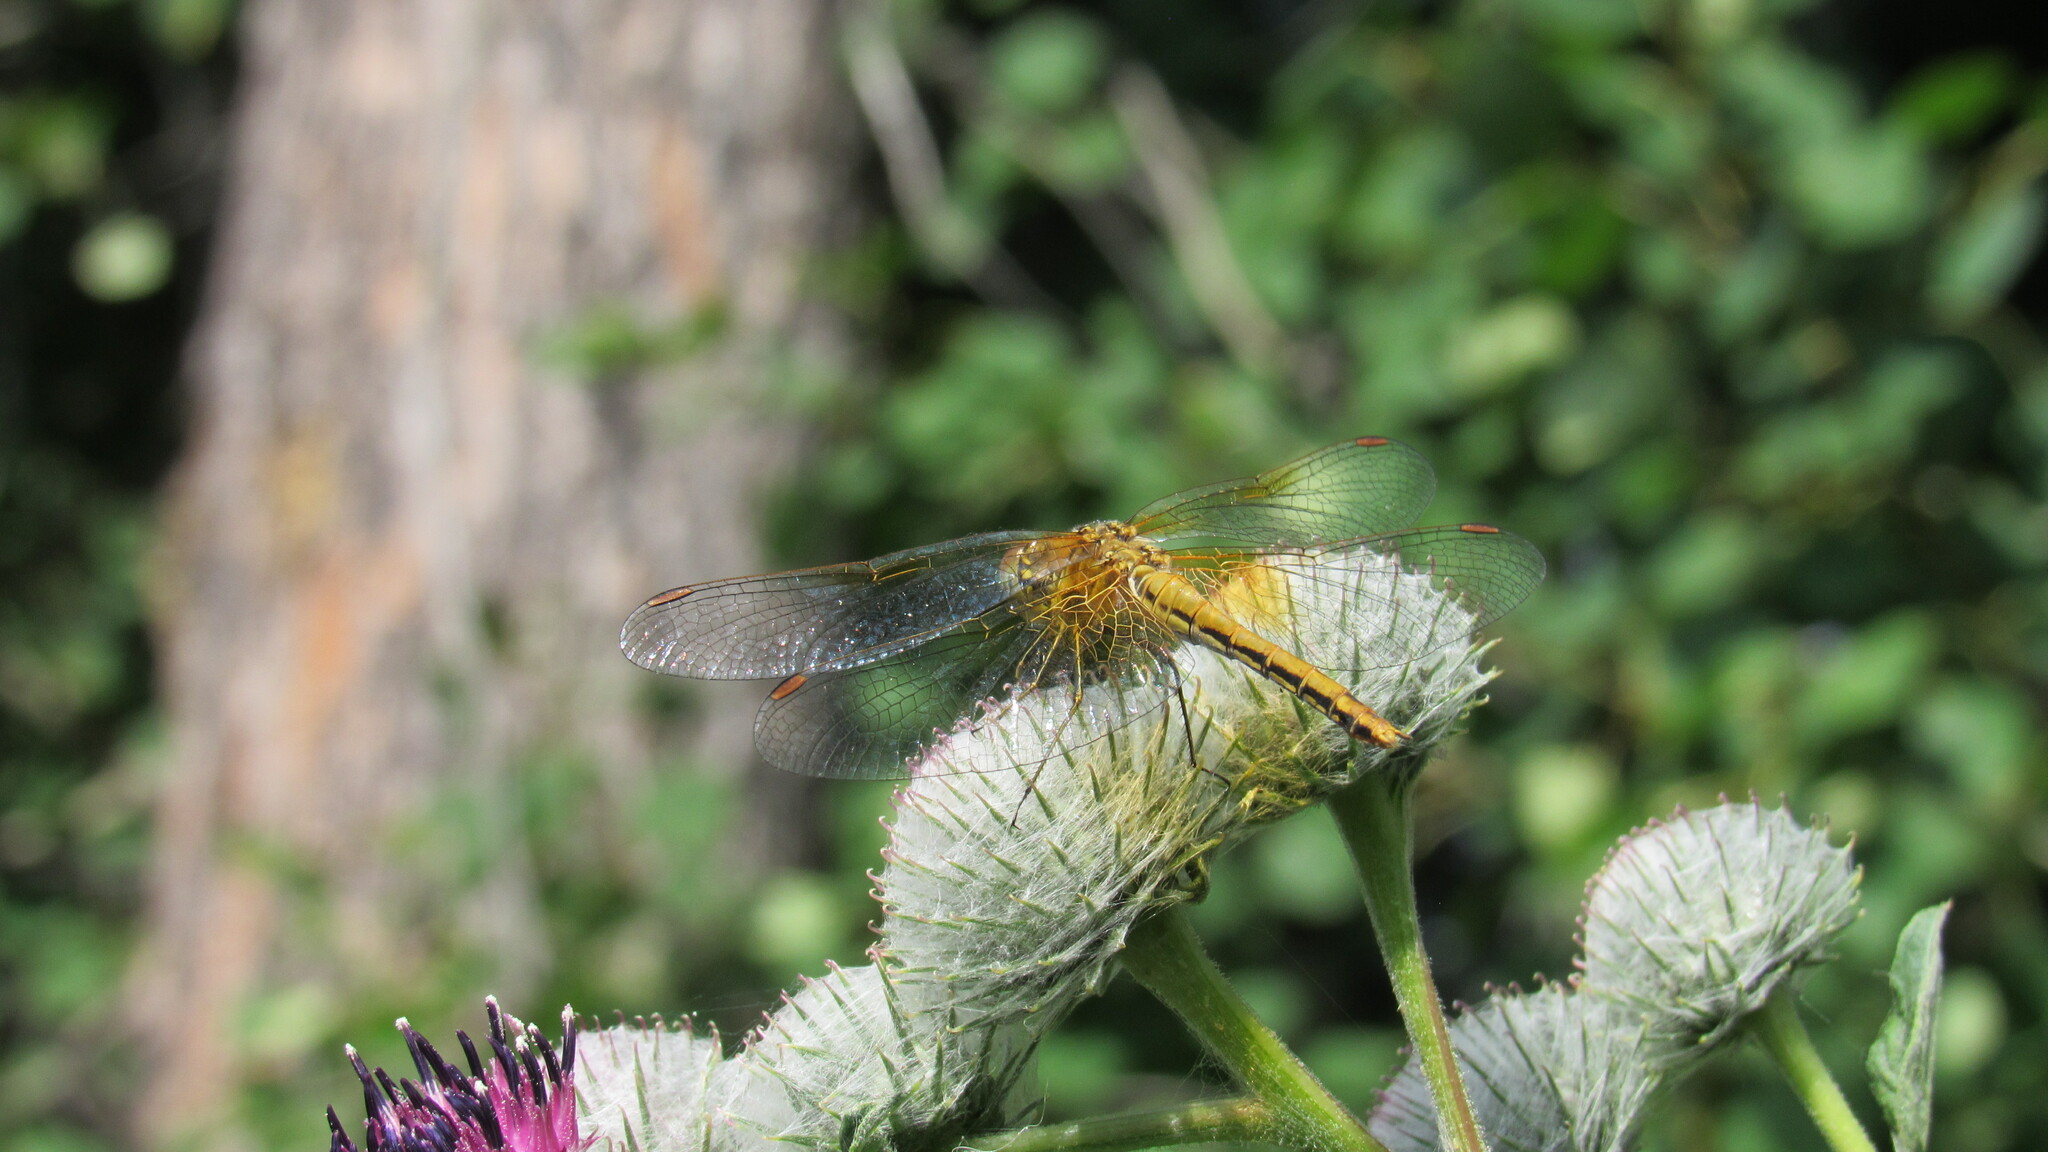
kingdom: Animalia
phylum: Arthropoda
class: Insecta
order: Odonata
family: Libellulidae
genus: Sympetrum
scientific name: Sympetrum flaveolum
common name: Yellow-winged darter
